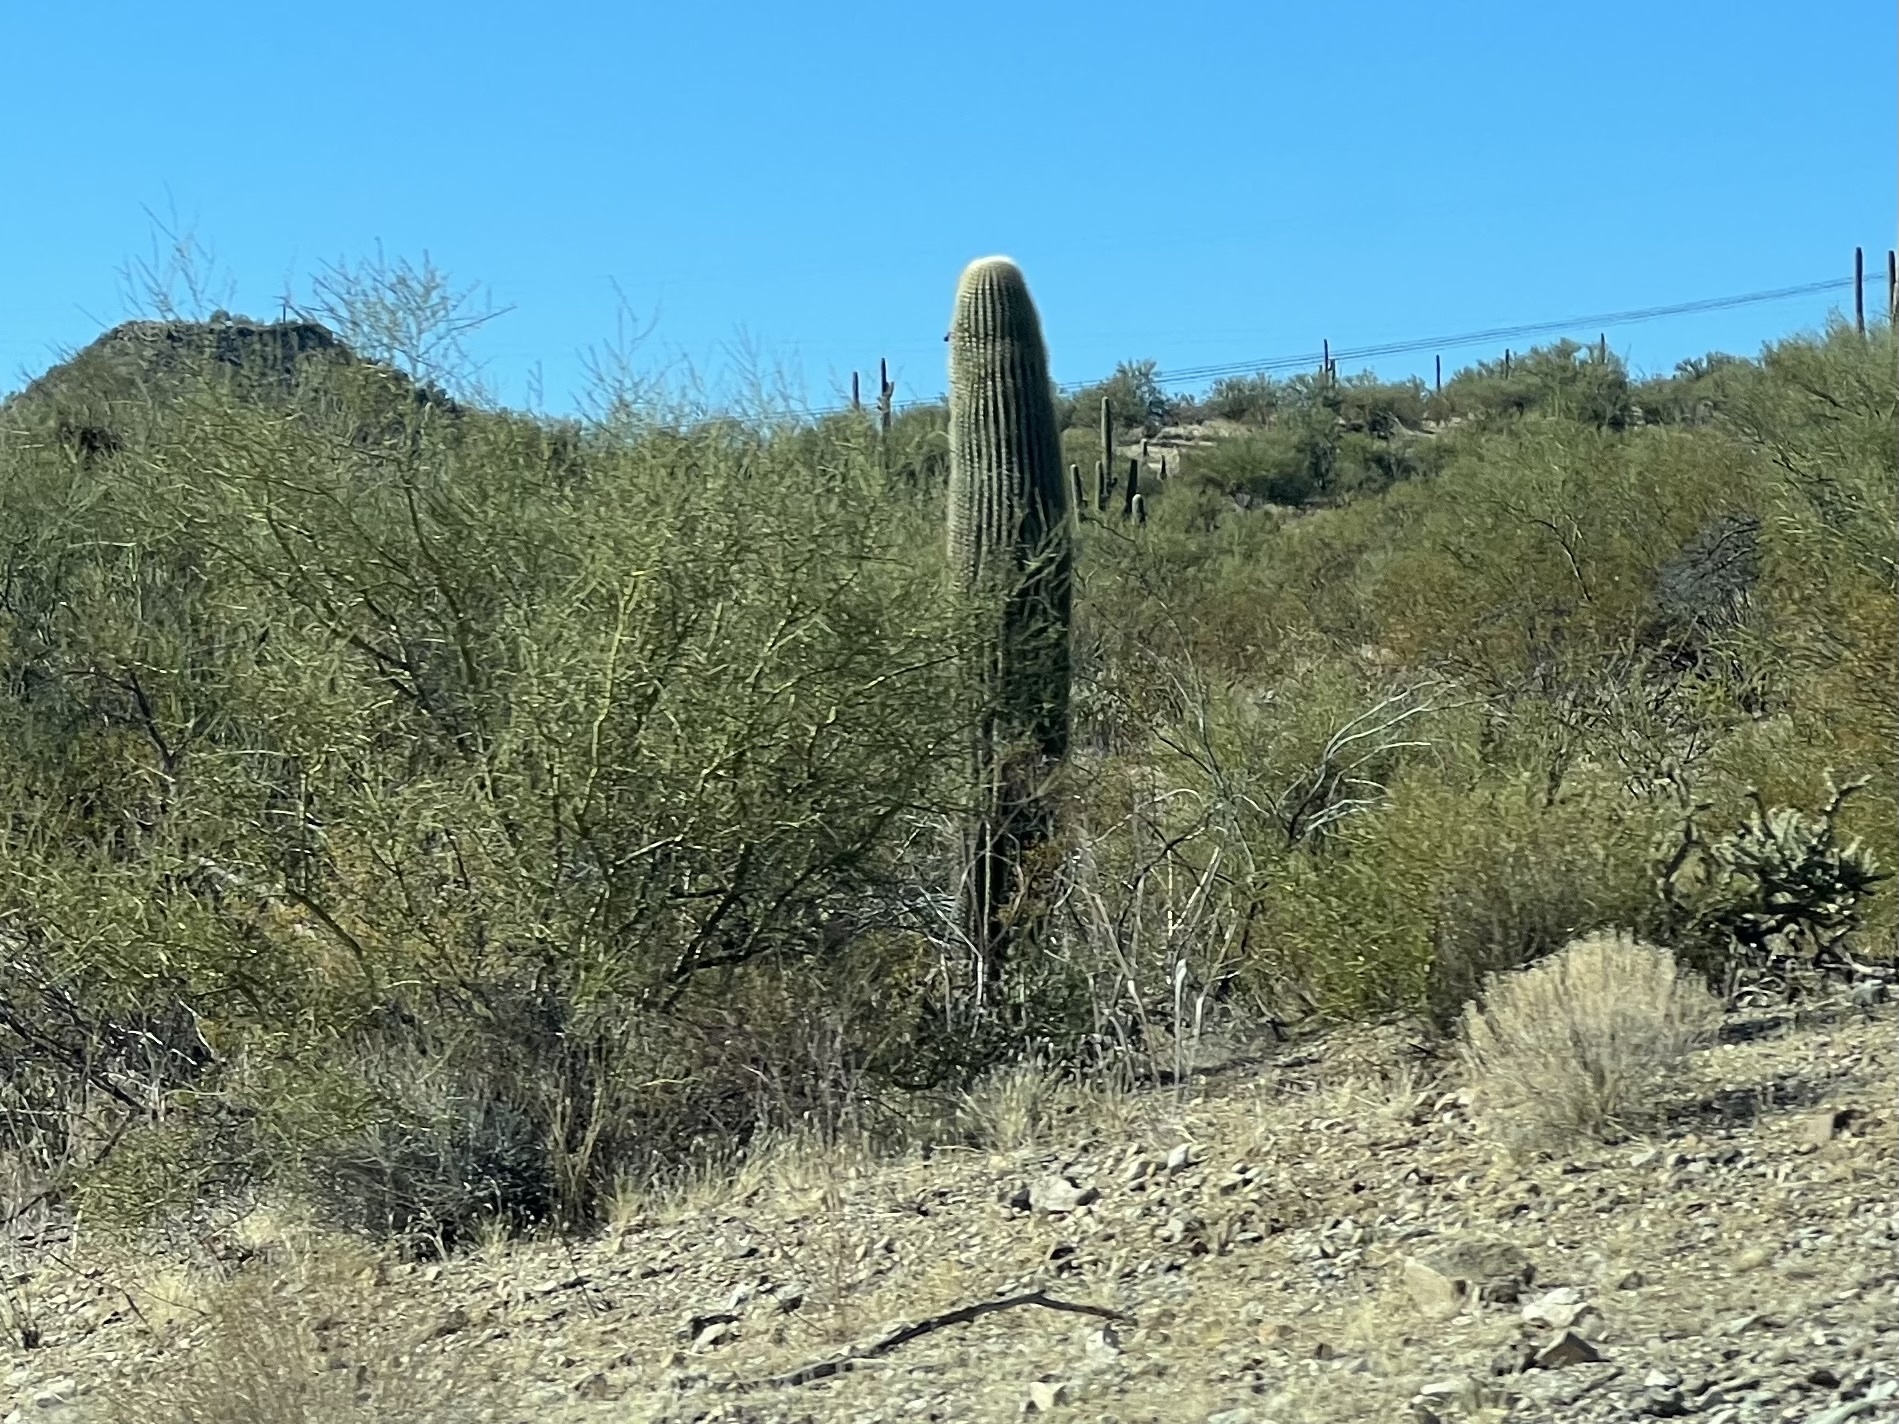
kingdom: Plantae
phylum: Tracheophyta
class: Magnoliopsida
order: Caryophyllales
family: Cactaceae
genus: Carnegiea
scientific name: Carnegiea gigantea
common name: Saguaro
